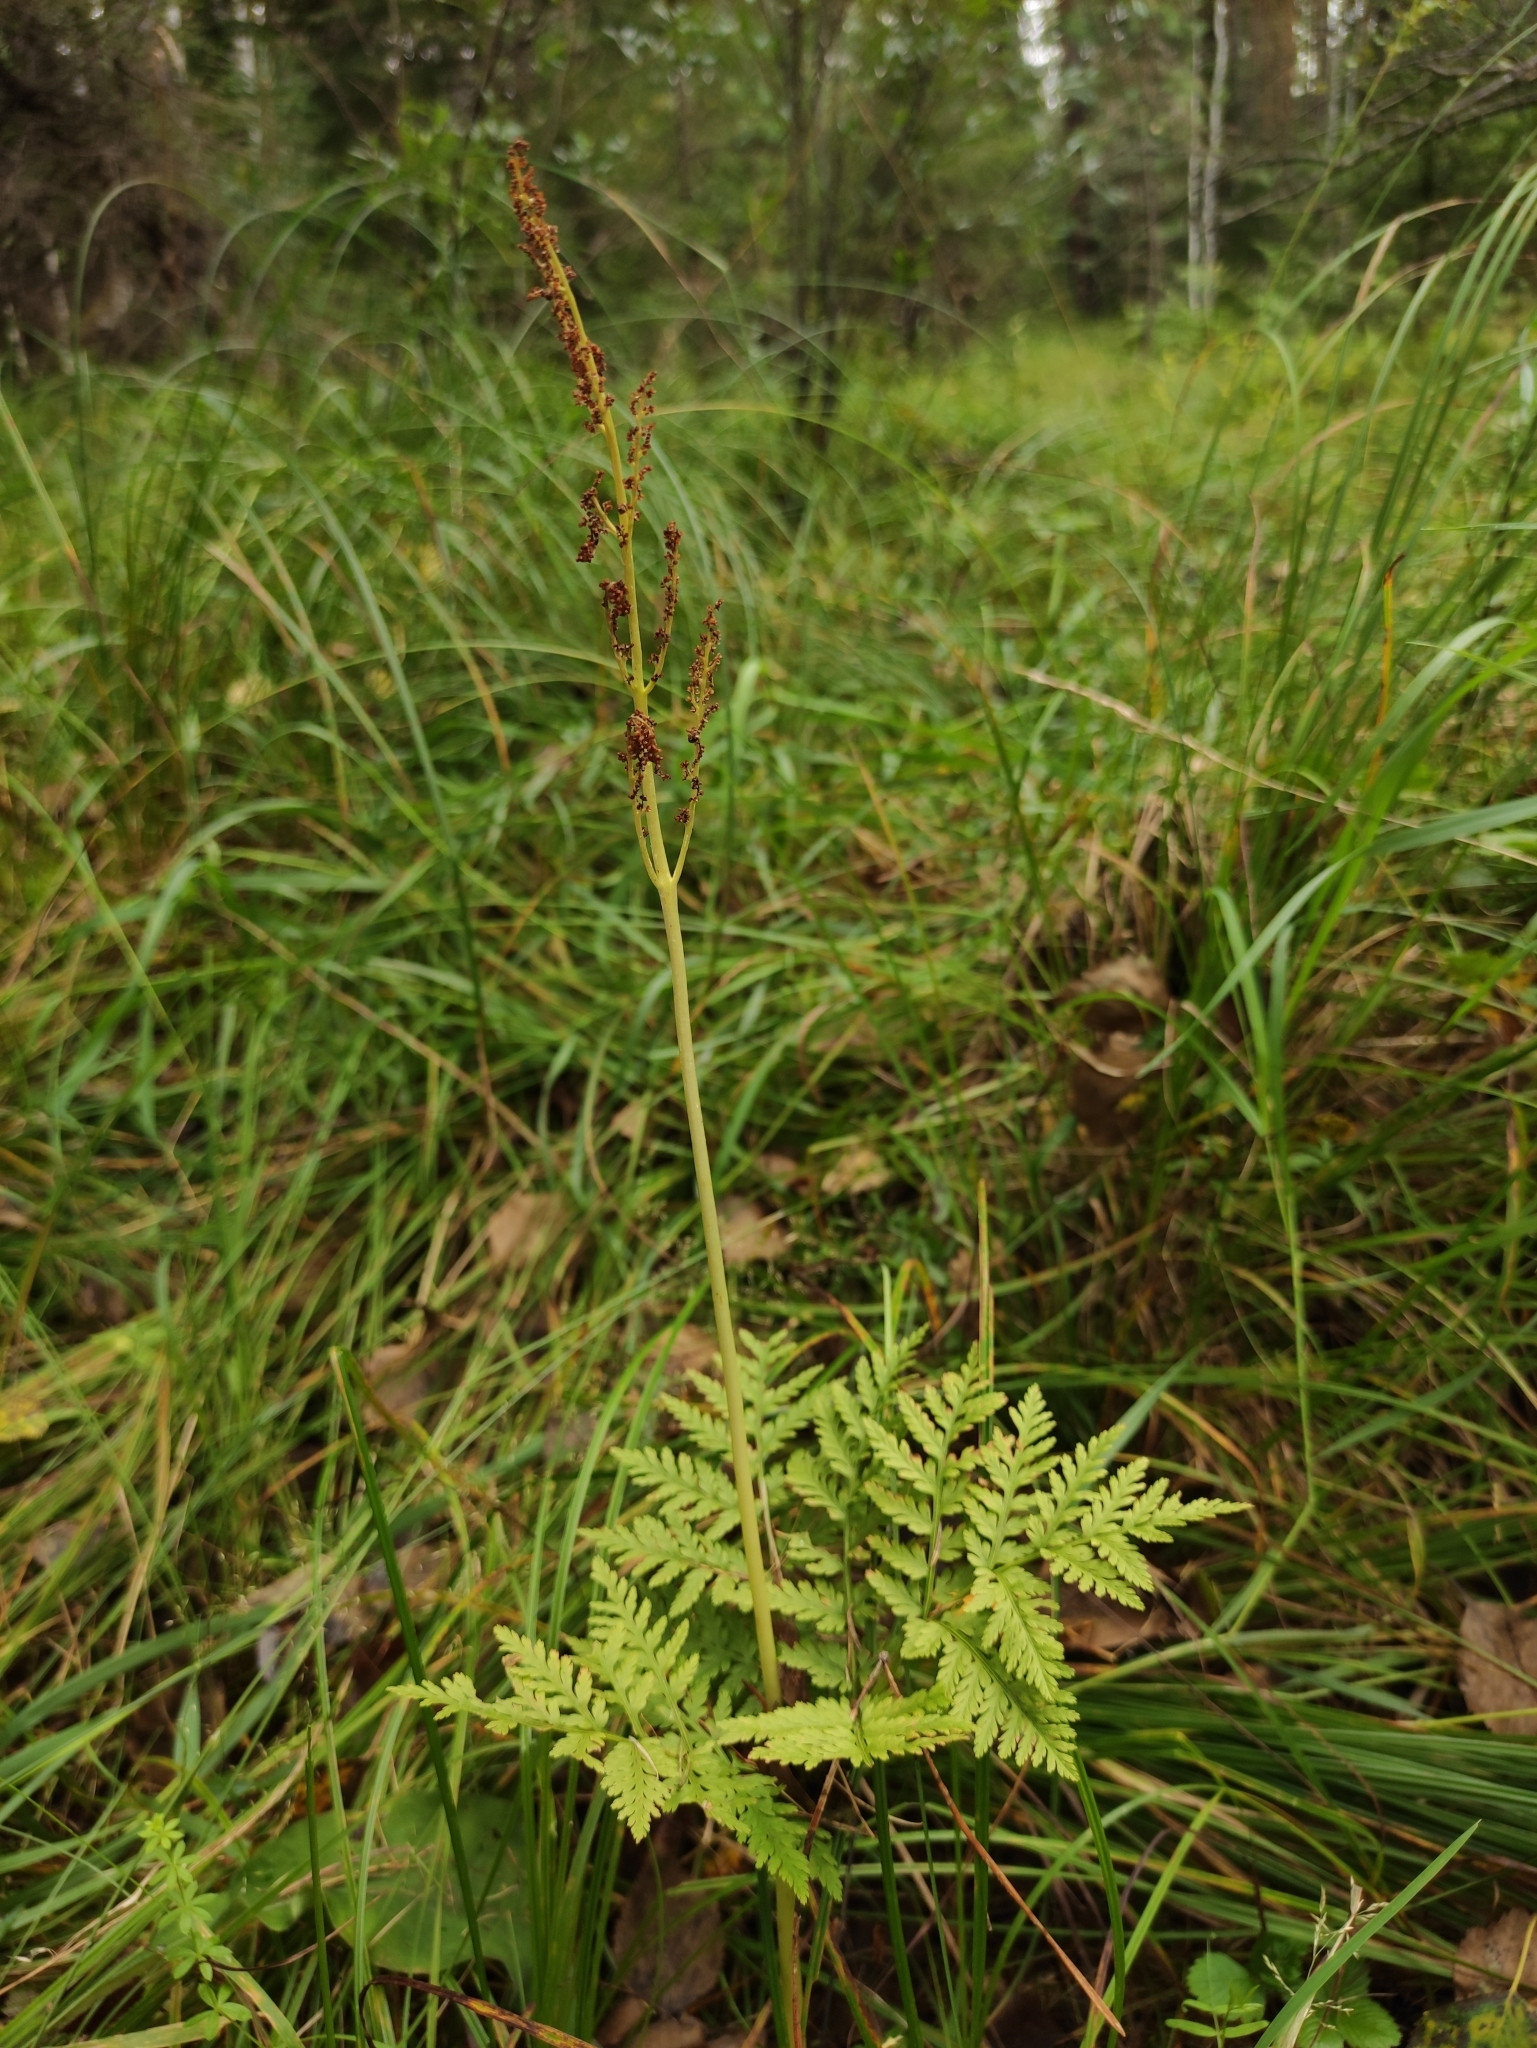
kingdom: Plantae
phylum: Tracheophyta
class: Polypodiopsida
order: Ophioglossales
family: Ophioglossaceae
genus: Botrypus
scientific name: Botrypus virginianus
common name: Common grapefern
